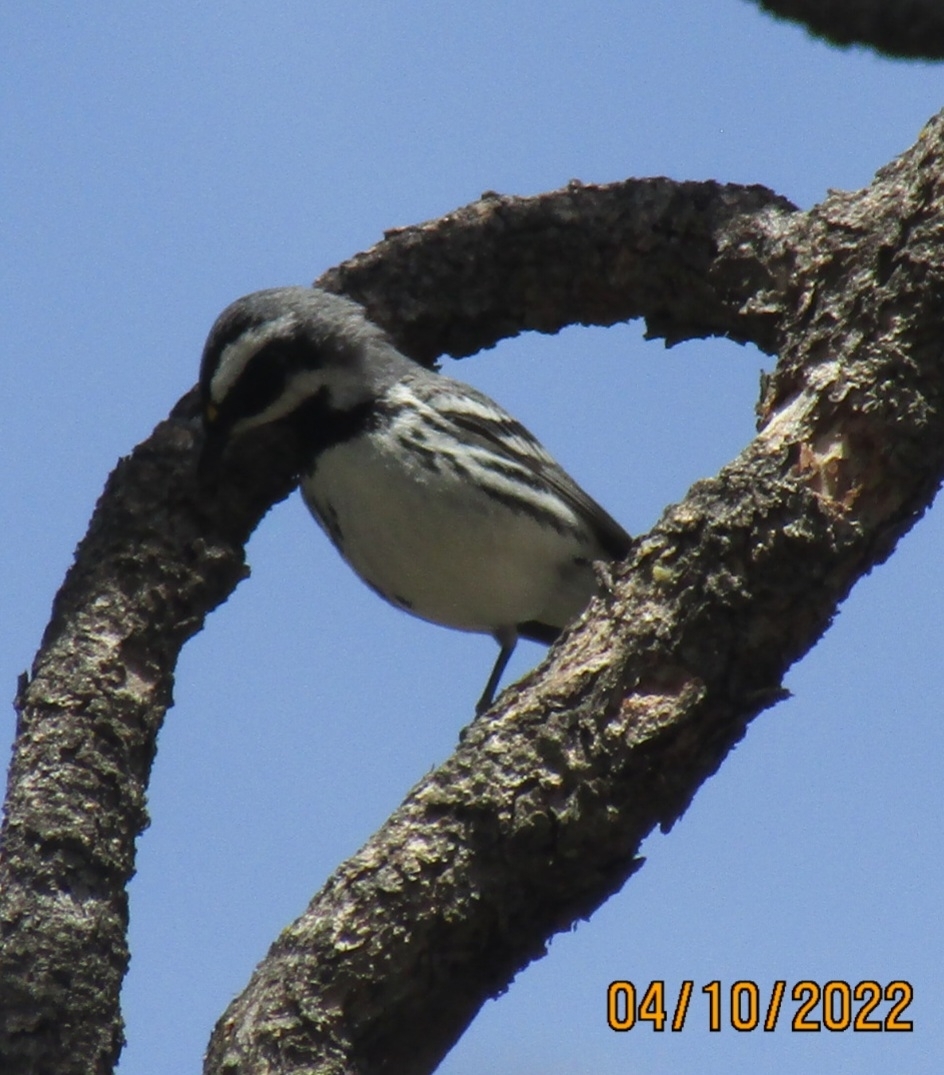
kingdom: Animalia
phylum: Chordata
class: Aves
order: Passeriformes
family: Parulidae
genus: Setophaga
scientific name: Setophaga nigrescens
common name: Black-throated gray warbler
